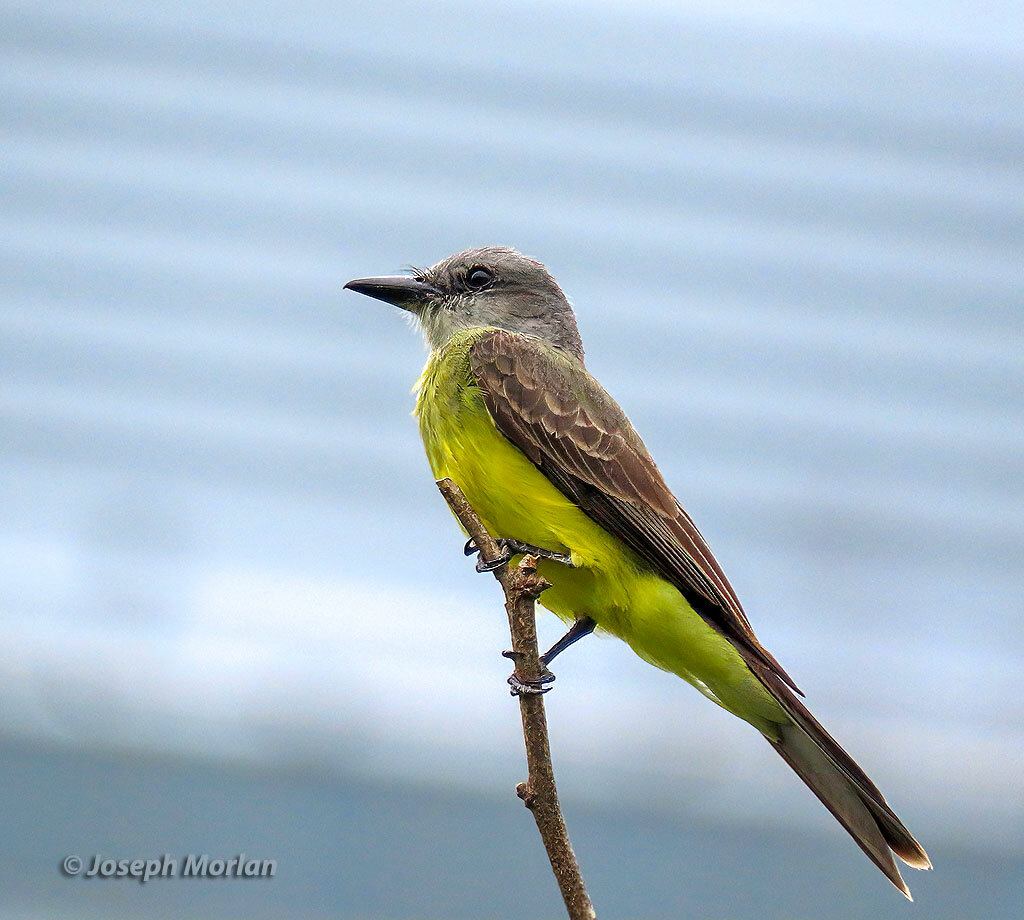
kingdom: Animalia
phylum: Chordata
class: Aves
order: Passeriformes
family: Tyrannidae
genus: Tyrannus
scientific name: Tyrannus melancholicus
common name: Tropical kingbird
